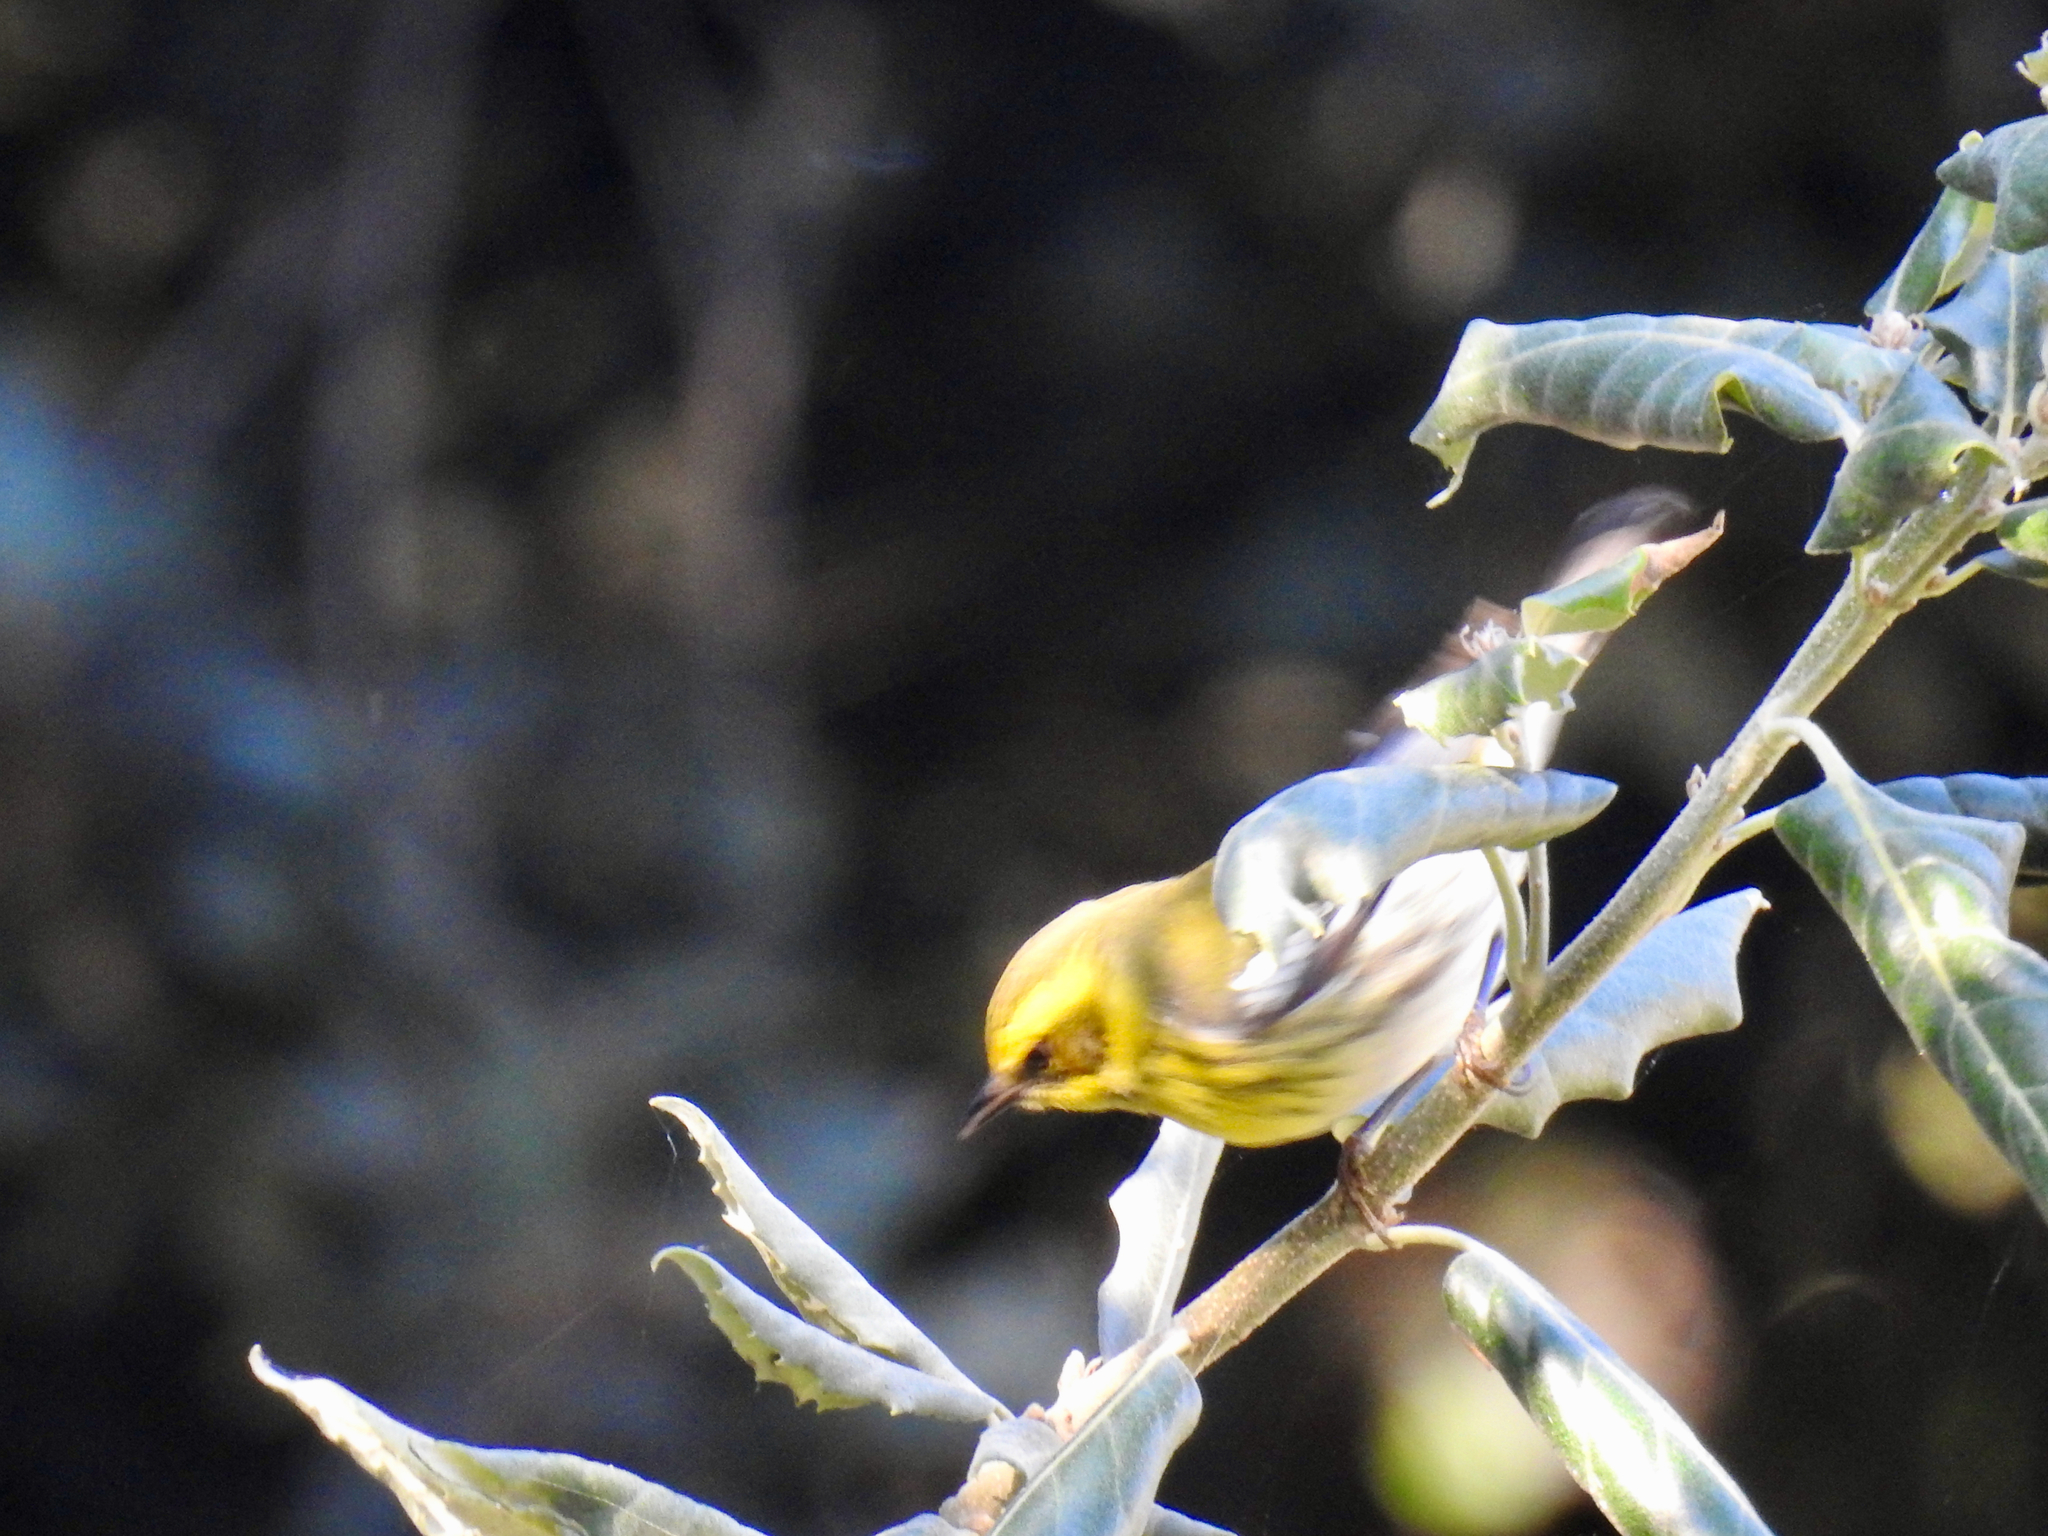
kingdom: Animalia
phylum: Chordata
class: Aves
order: Passeriformes
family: Parulidae
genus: Setophaga
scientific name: Setophaga townsendi
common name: Townsend's warbler
